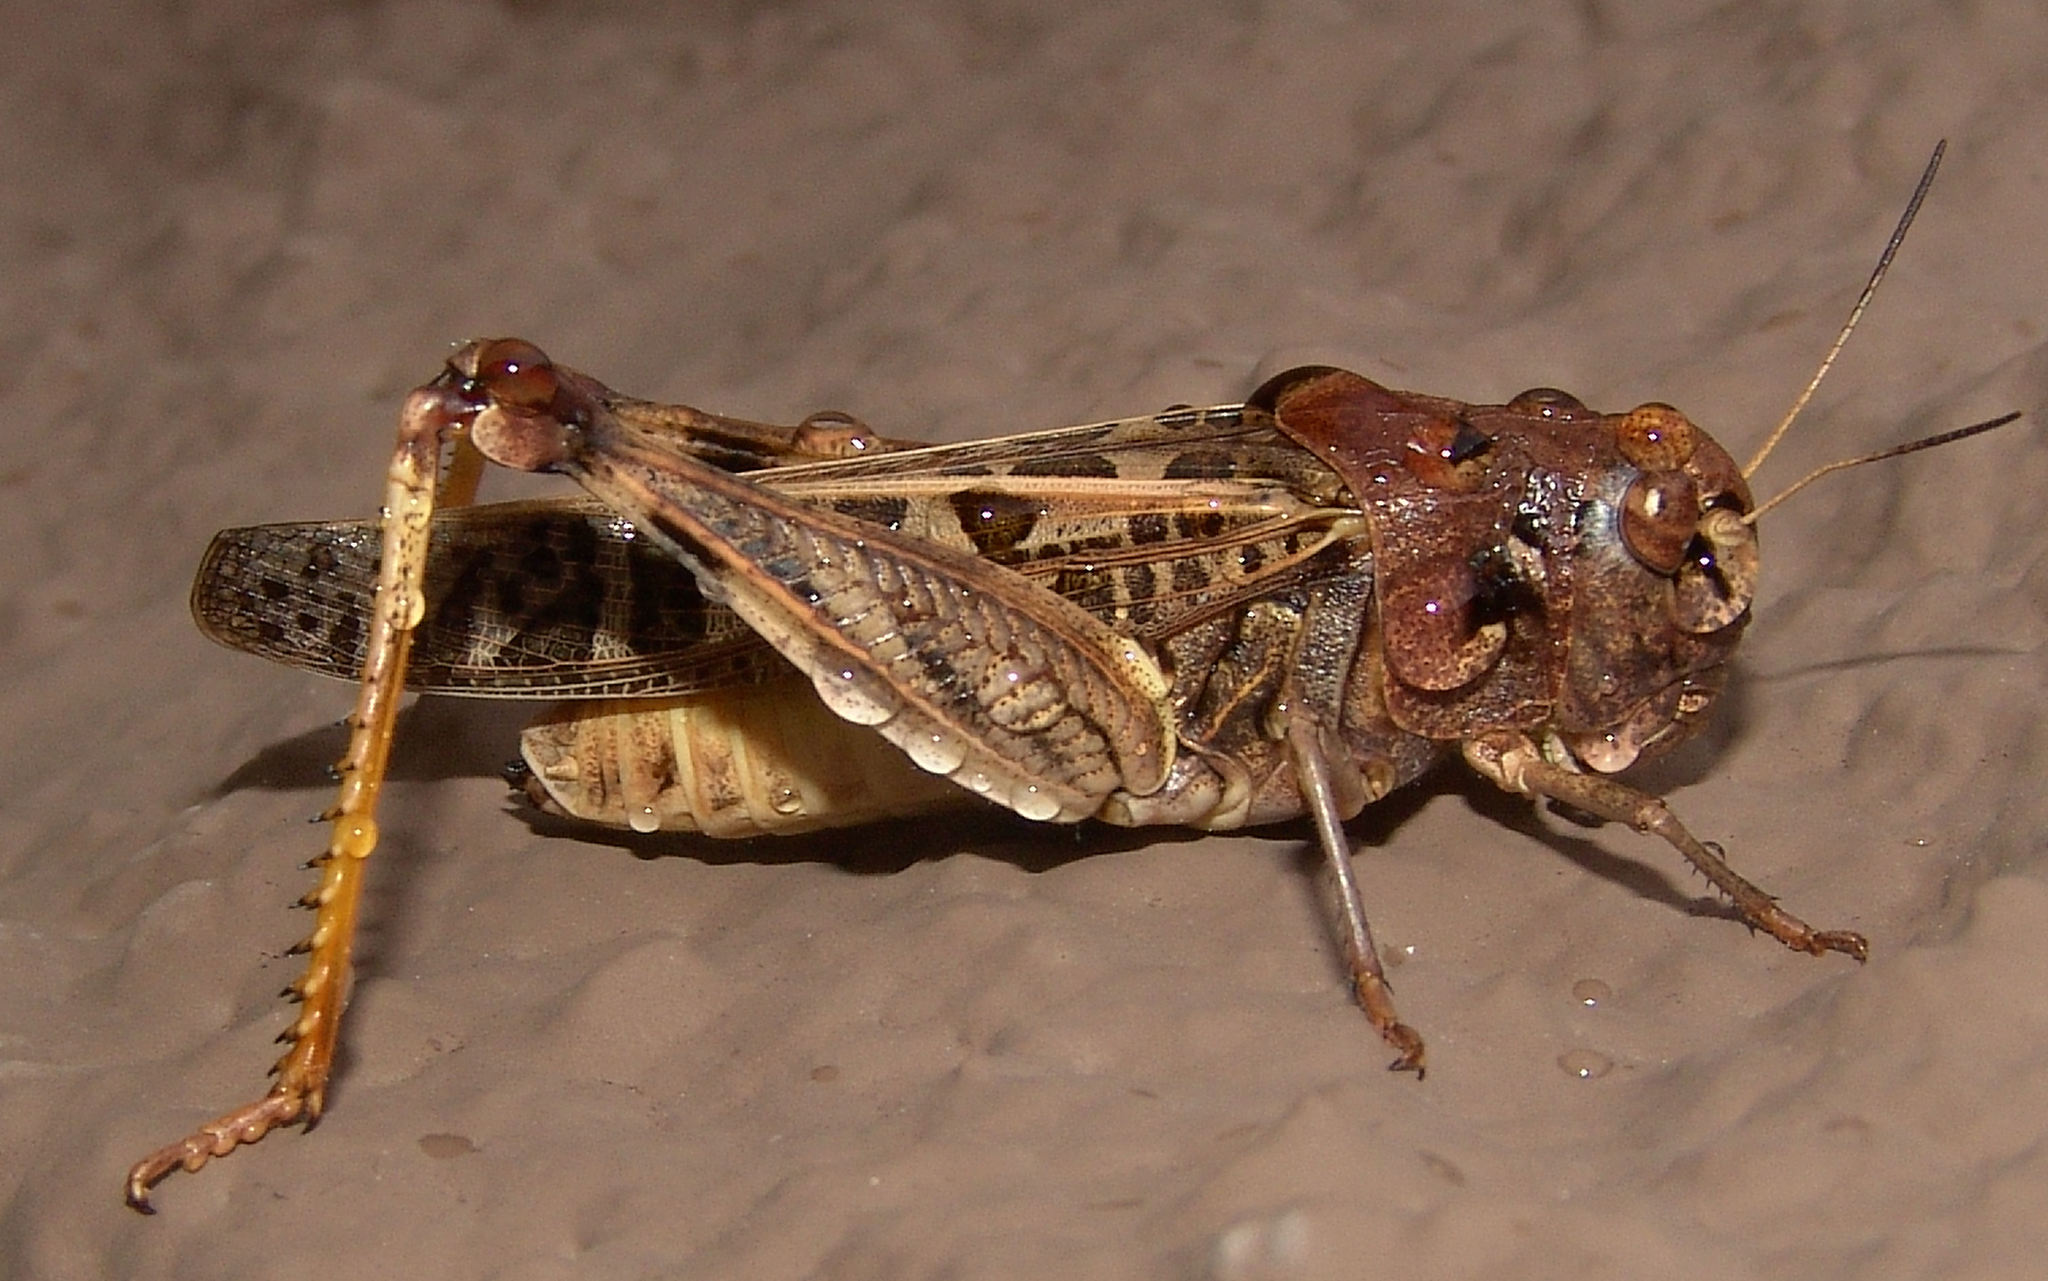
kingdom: Animalia
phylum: Arthropoda
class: Insecta
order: Orthoptera
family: Acrididae
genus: Hippiscus
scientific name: Hippiscus ocelote
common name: Wrinkled grasshopper
